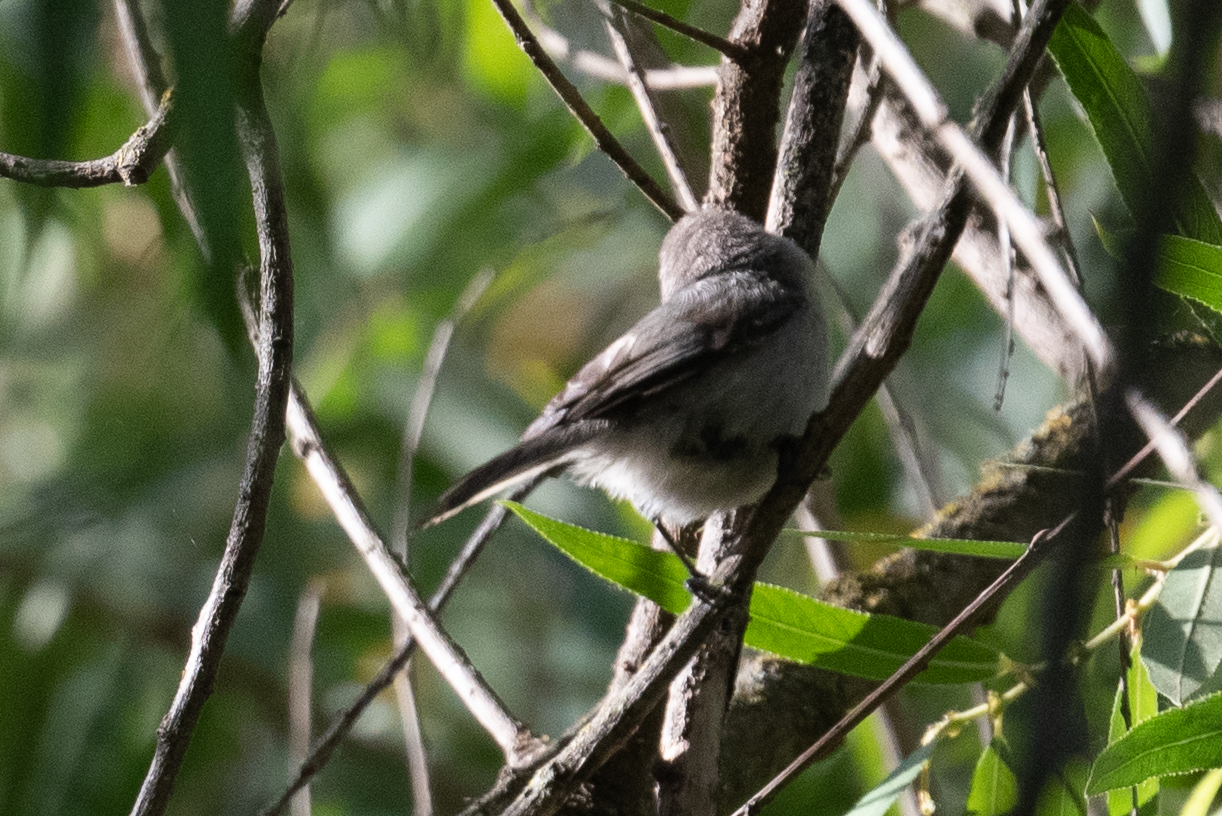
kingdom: Animalia
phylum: Chordata
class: Aves
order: Passeriformes
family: Aegithalidae
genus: Psaltriparus
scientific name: Psaltriparus minimus
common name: American bushtit
